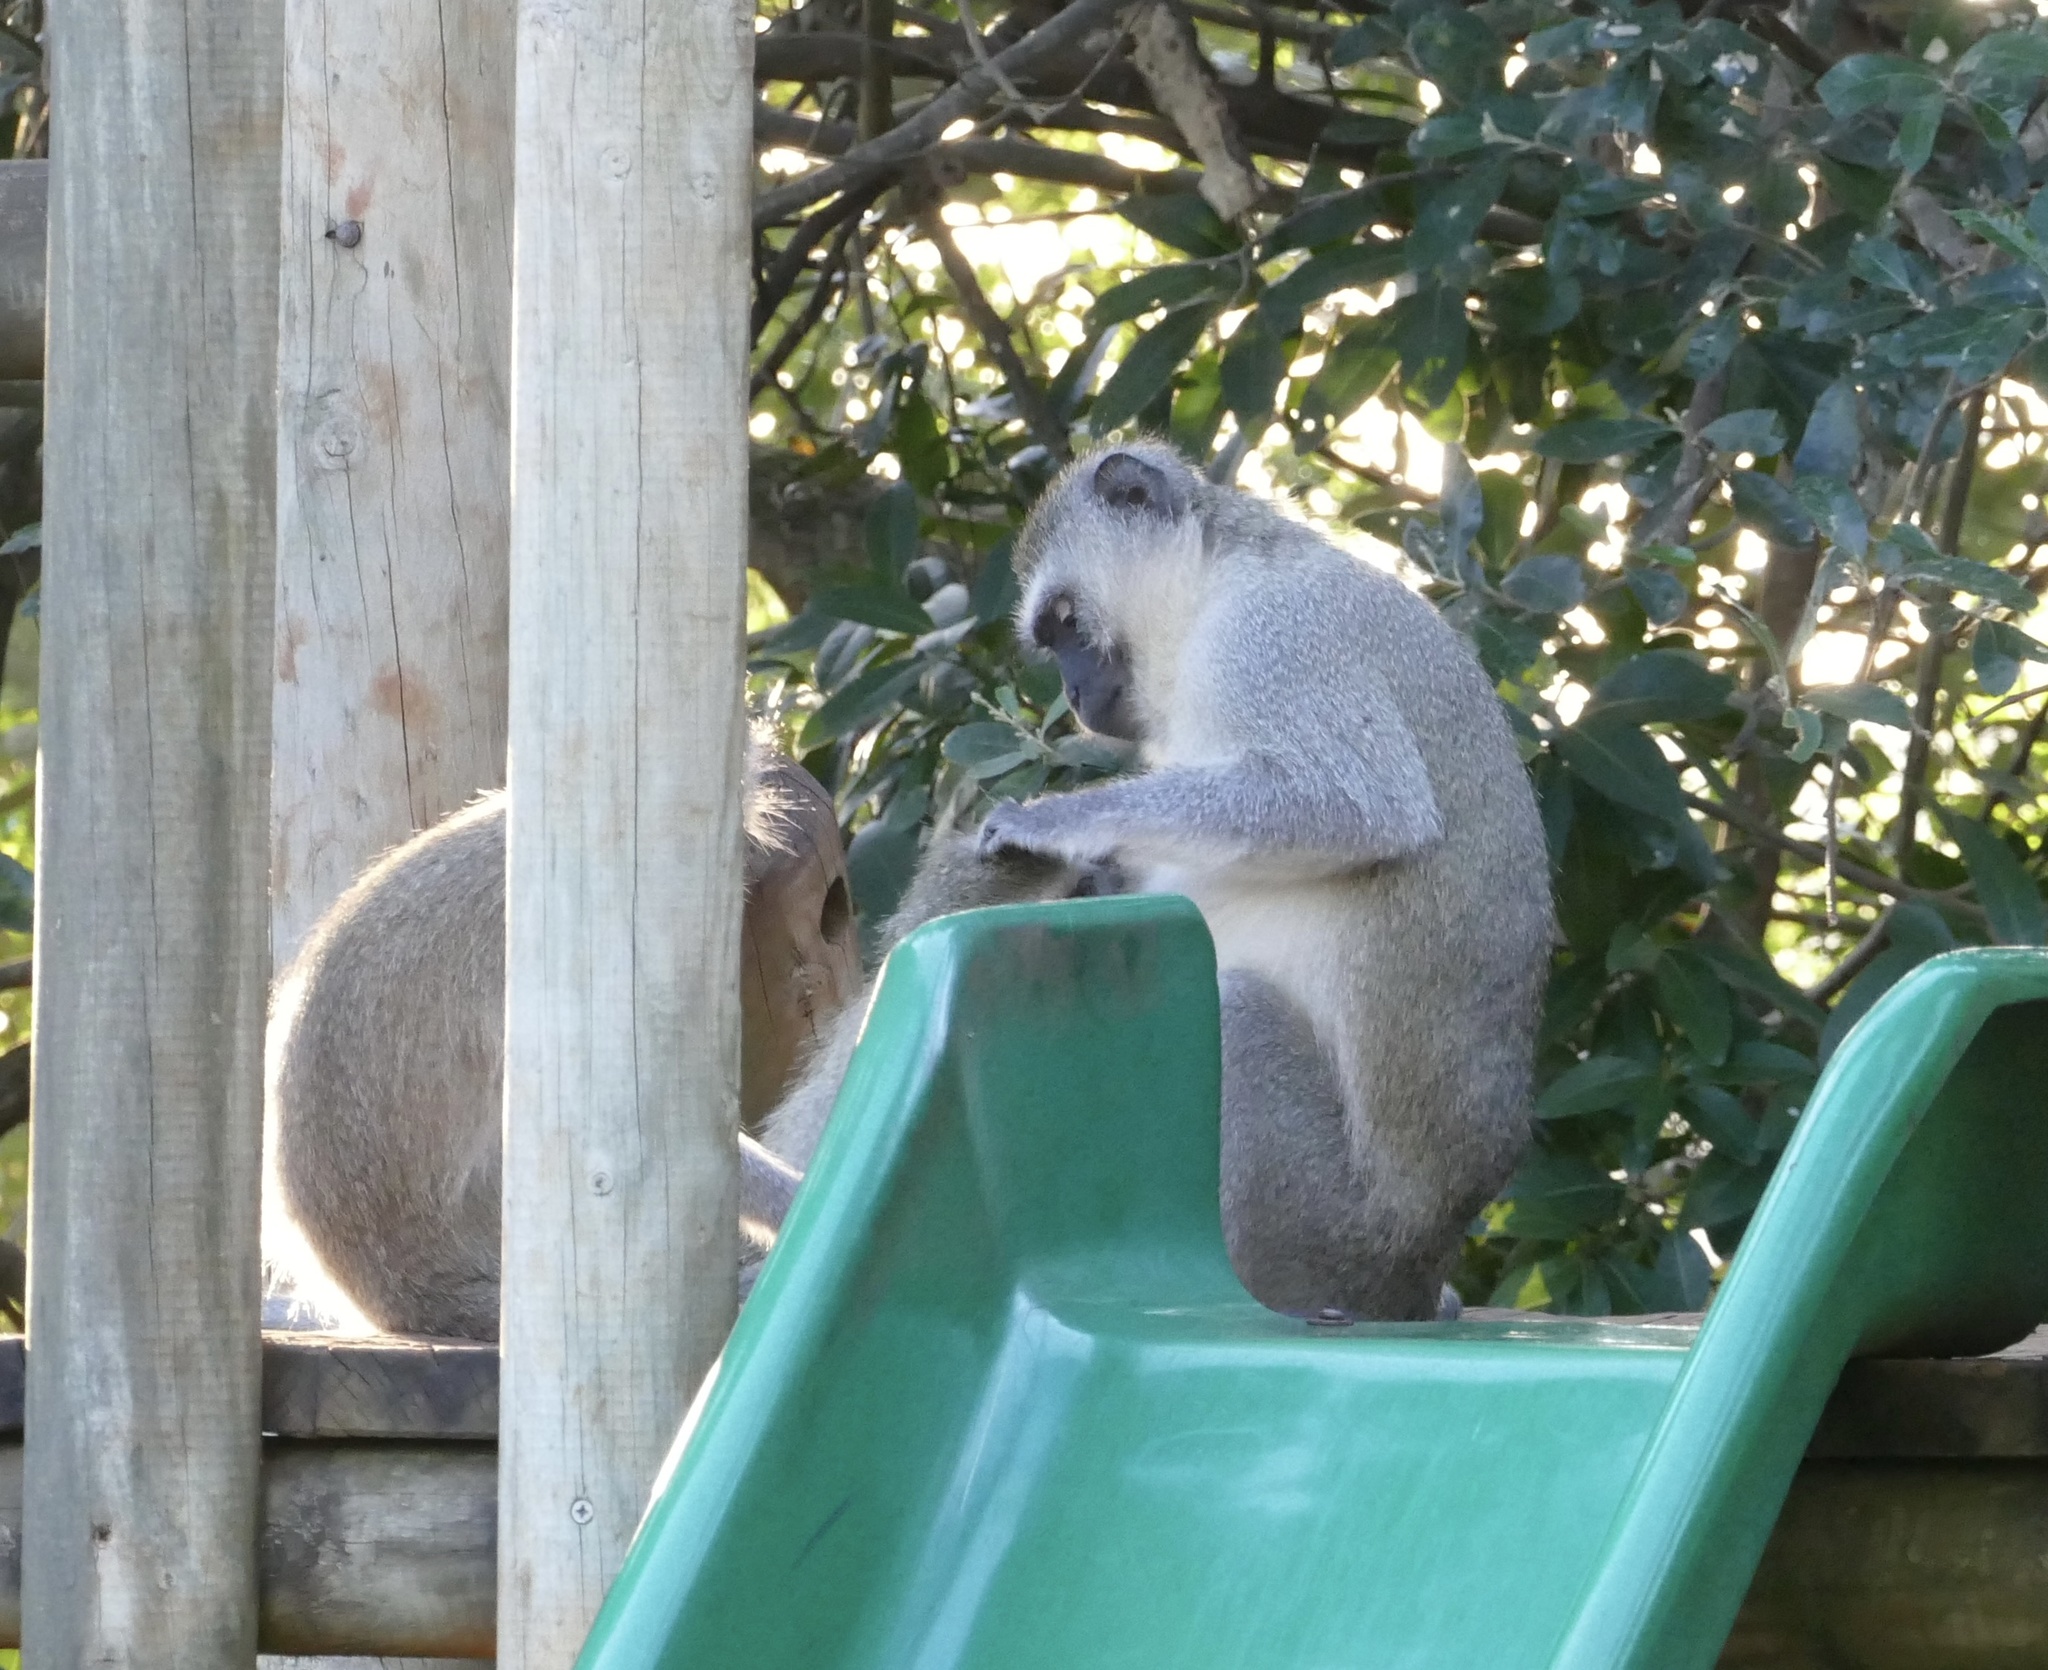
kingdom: Animalia
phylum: Chordata
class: Mammalia
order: Primates
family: Cercopithecidae
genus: Chlorocebus
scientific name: Chlorocebus pygerythrus
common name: Vervet monkey
